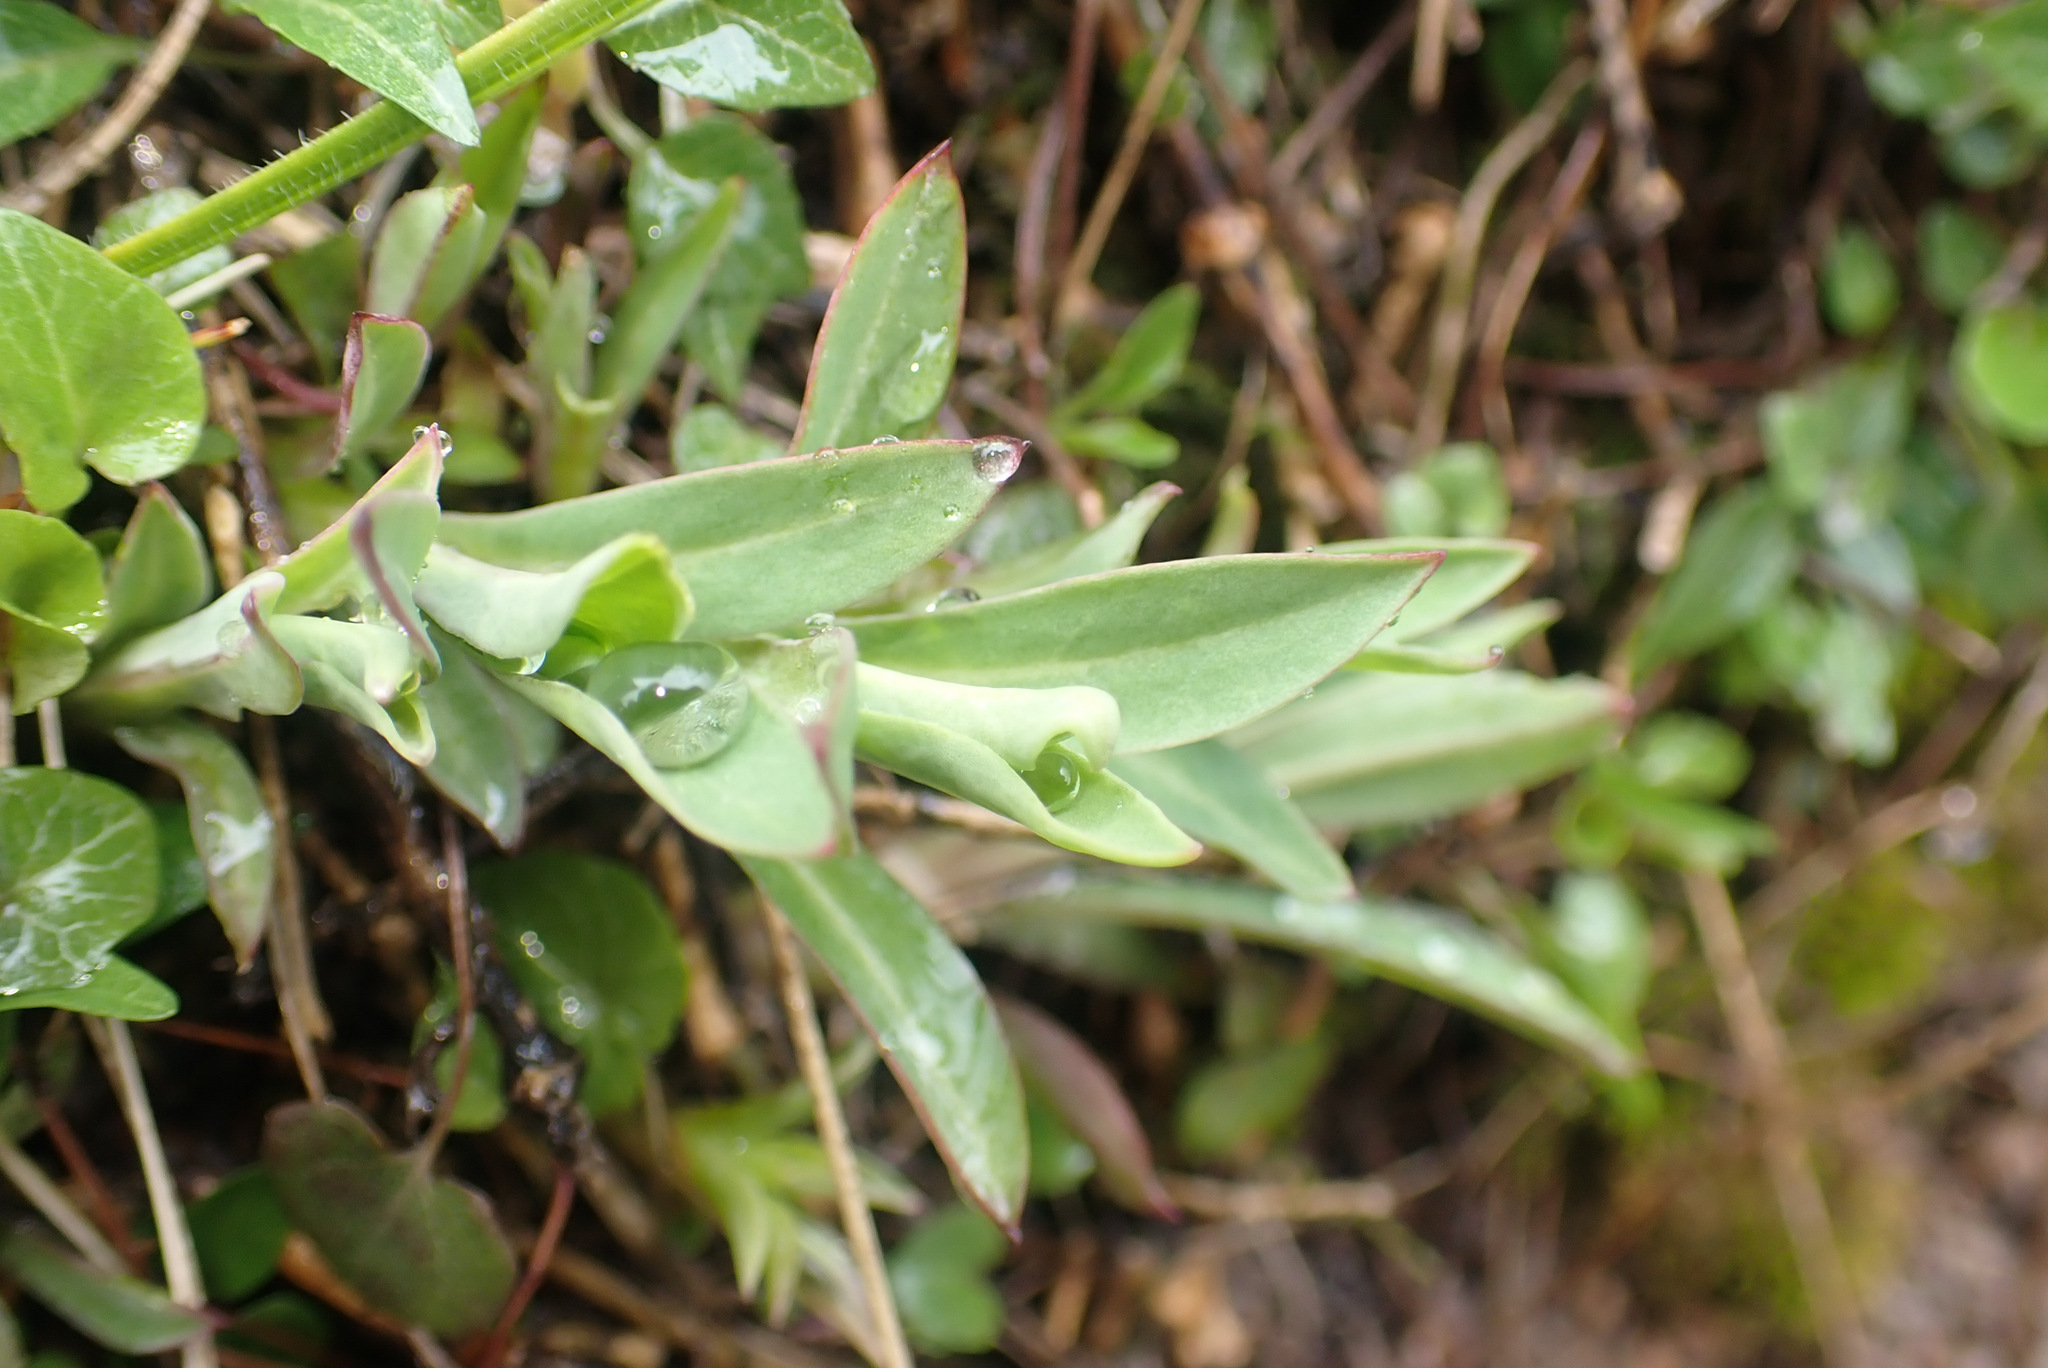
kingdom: Plantae
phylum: Tracheophyta
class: Magnoliopsida
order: Caryophyllales
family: Caryophyllaceae
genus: Silene
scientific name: Silene vulgaris
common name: Bladder campion
